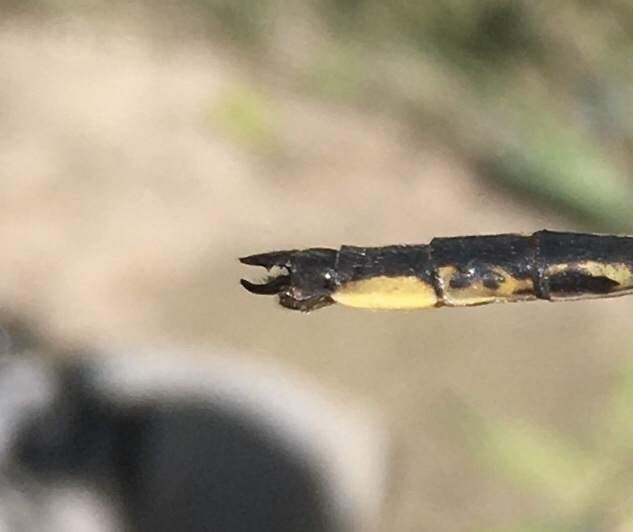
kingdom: Animalia
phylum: Arthropoda
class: Insecta
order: Odonata
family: Gomphidae
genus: Phanogomphus
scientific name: Phanogomphus spicatus
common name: Dusky clubtail
